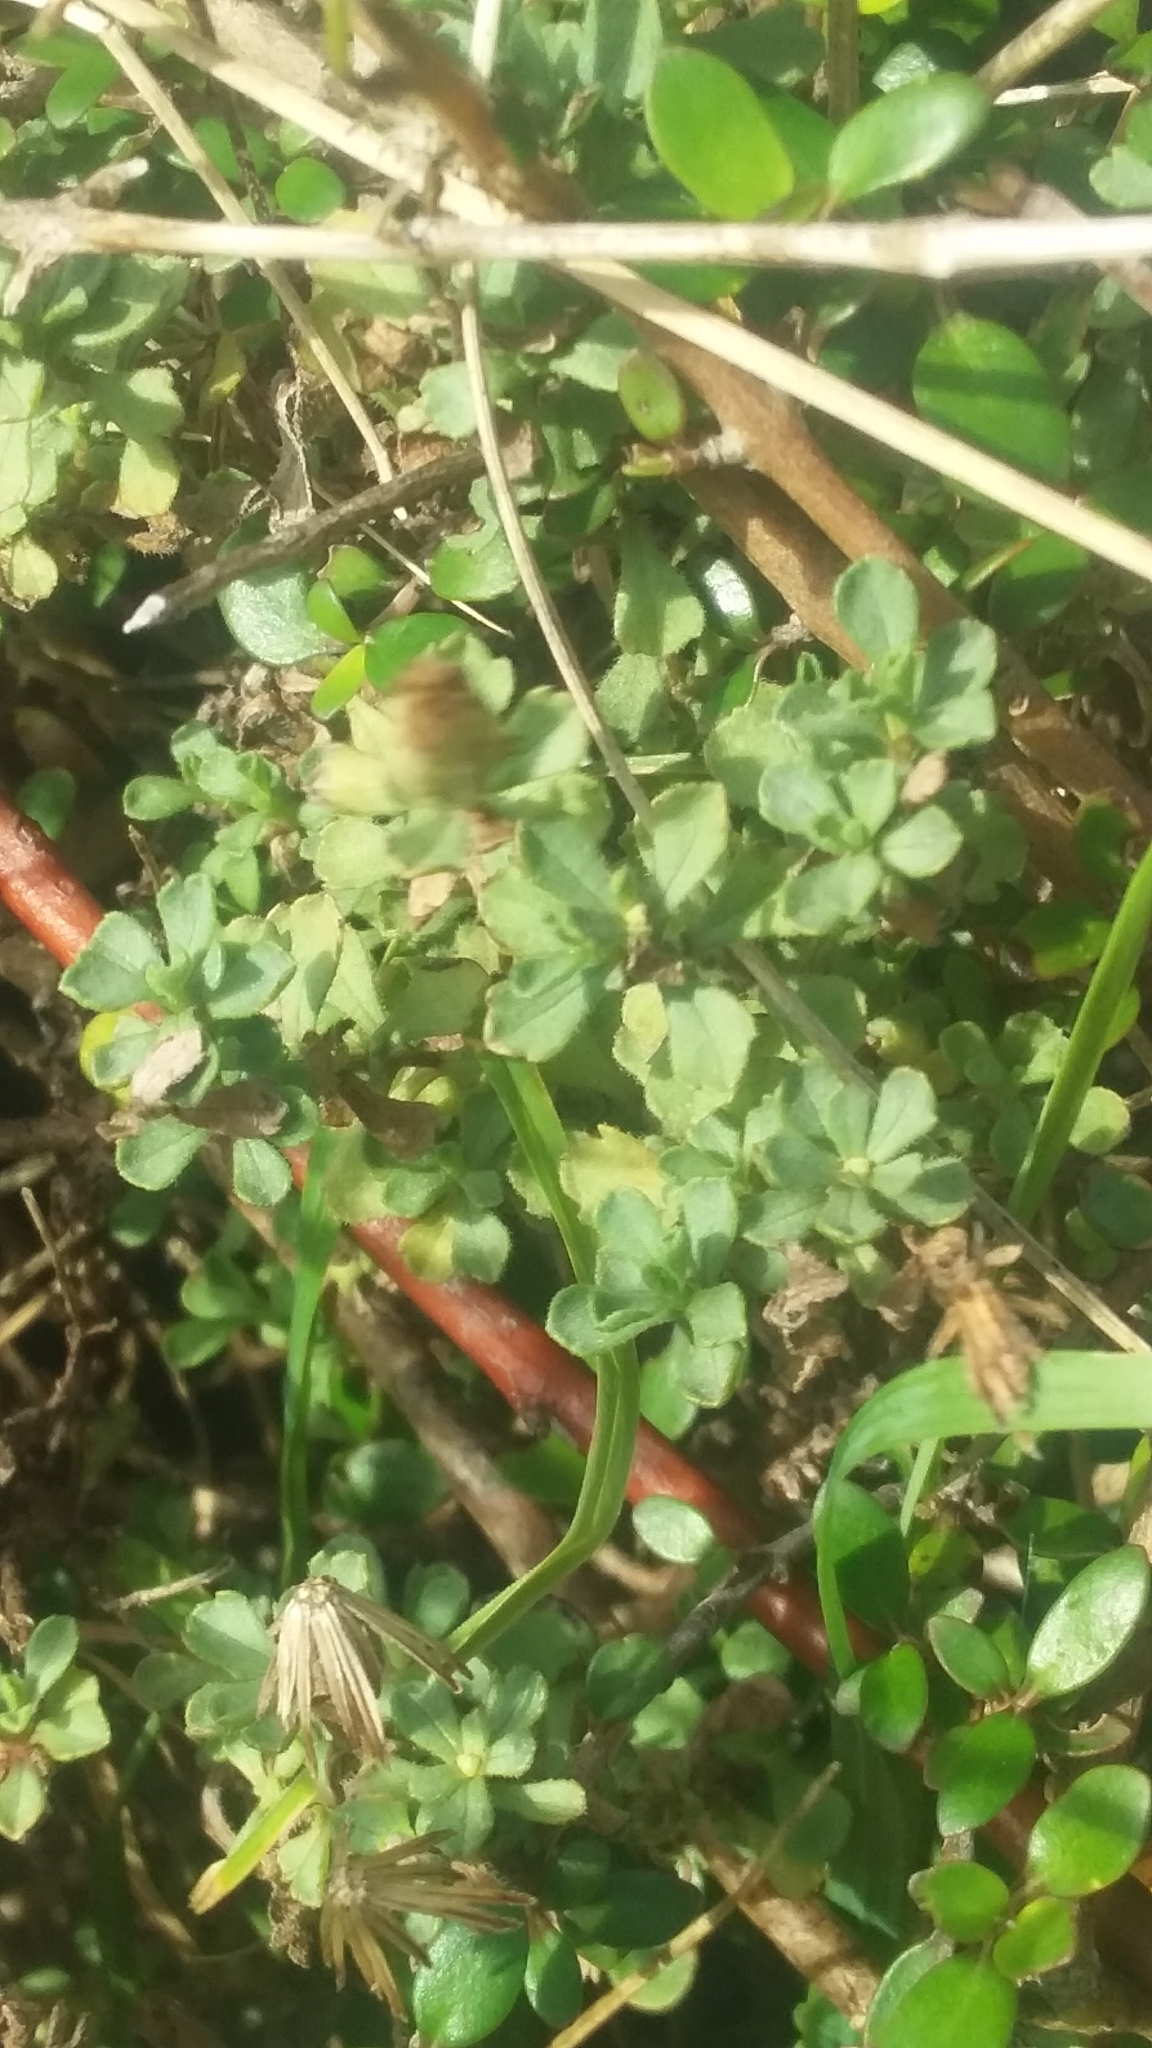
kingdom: Plantae
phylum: Tracheophyta
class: Magnoliopsida
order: Asterales
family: Asteraceae
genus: Vittadinia
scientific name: Vittadinia australis
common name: White fuzzweed
